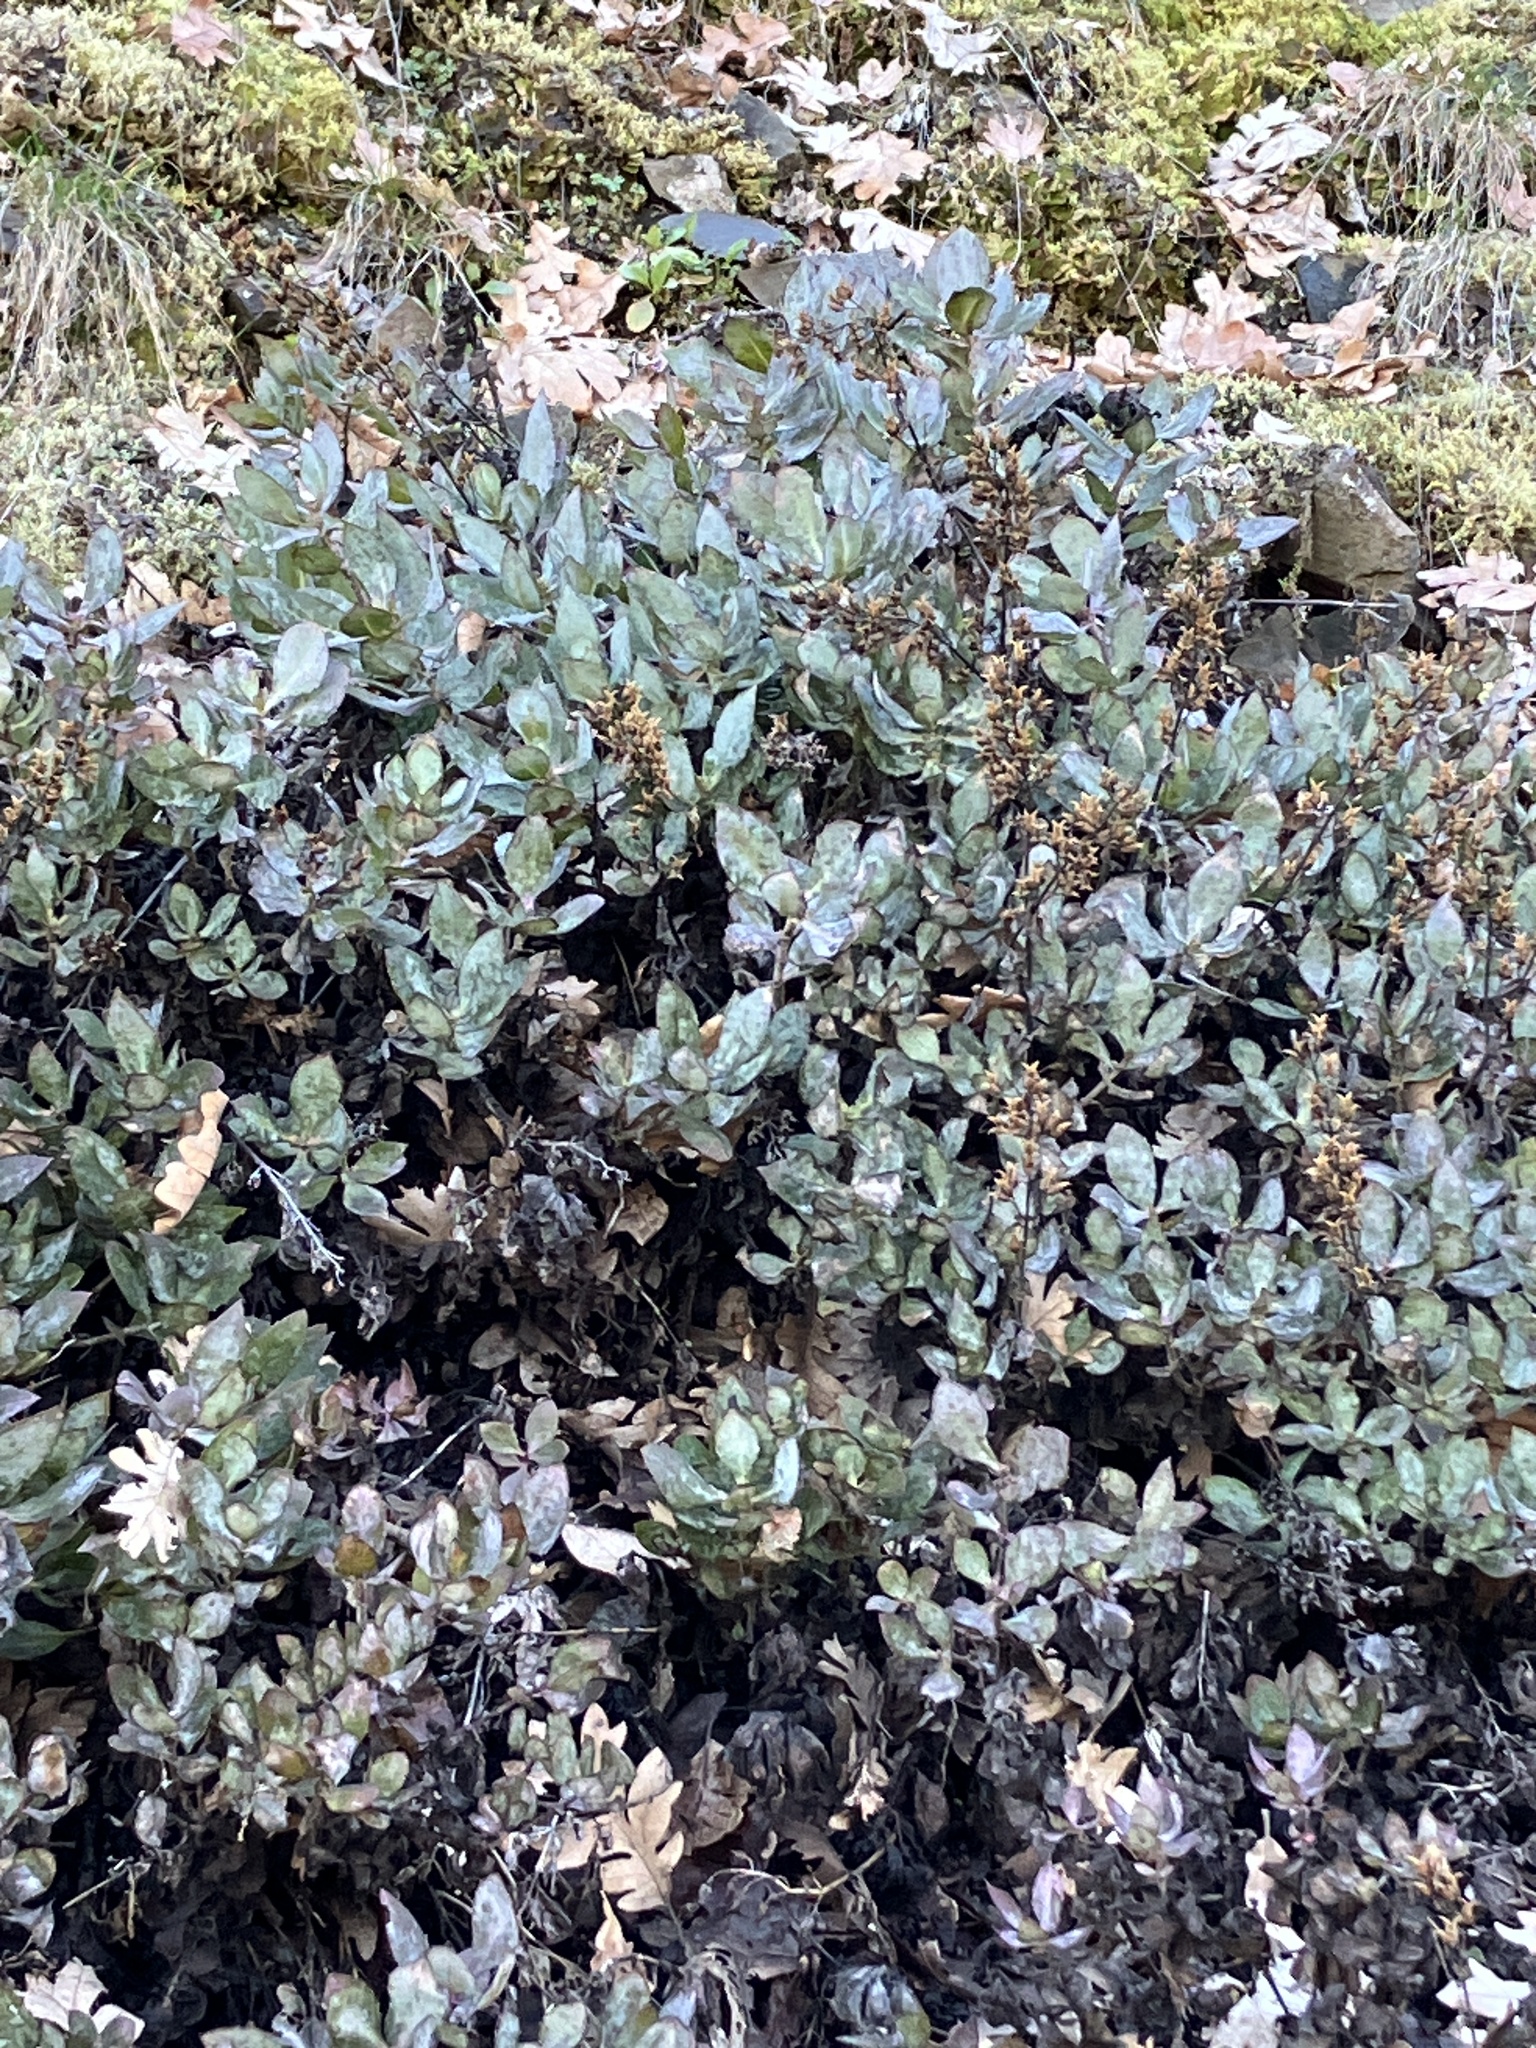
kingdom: Plantae
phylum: Tracheophyta
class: Magnoliopsida
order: Lamiales
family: Plantaginaceae
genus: Penstemon
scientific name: Penstemon barrettiae
